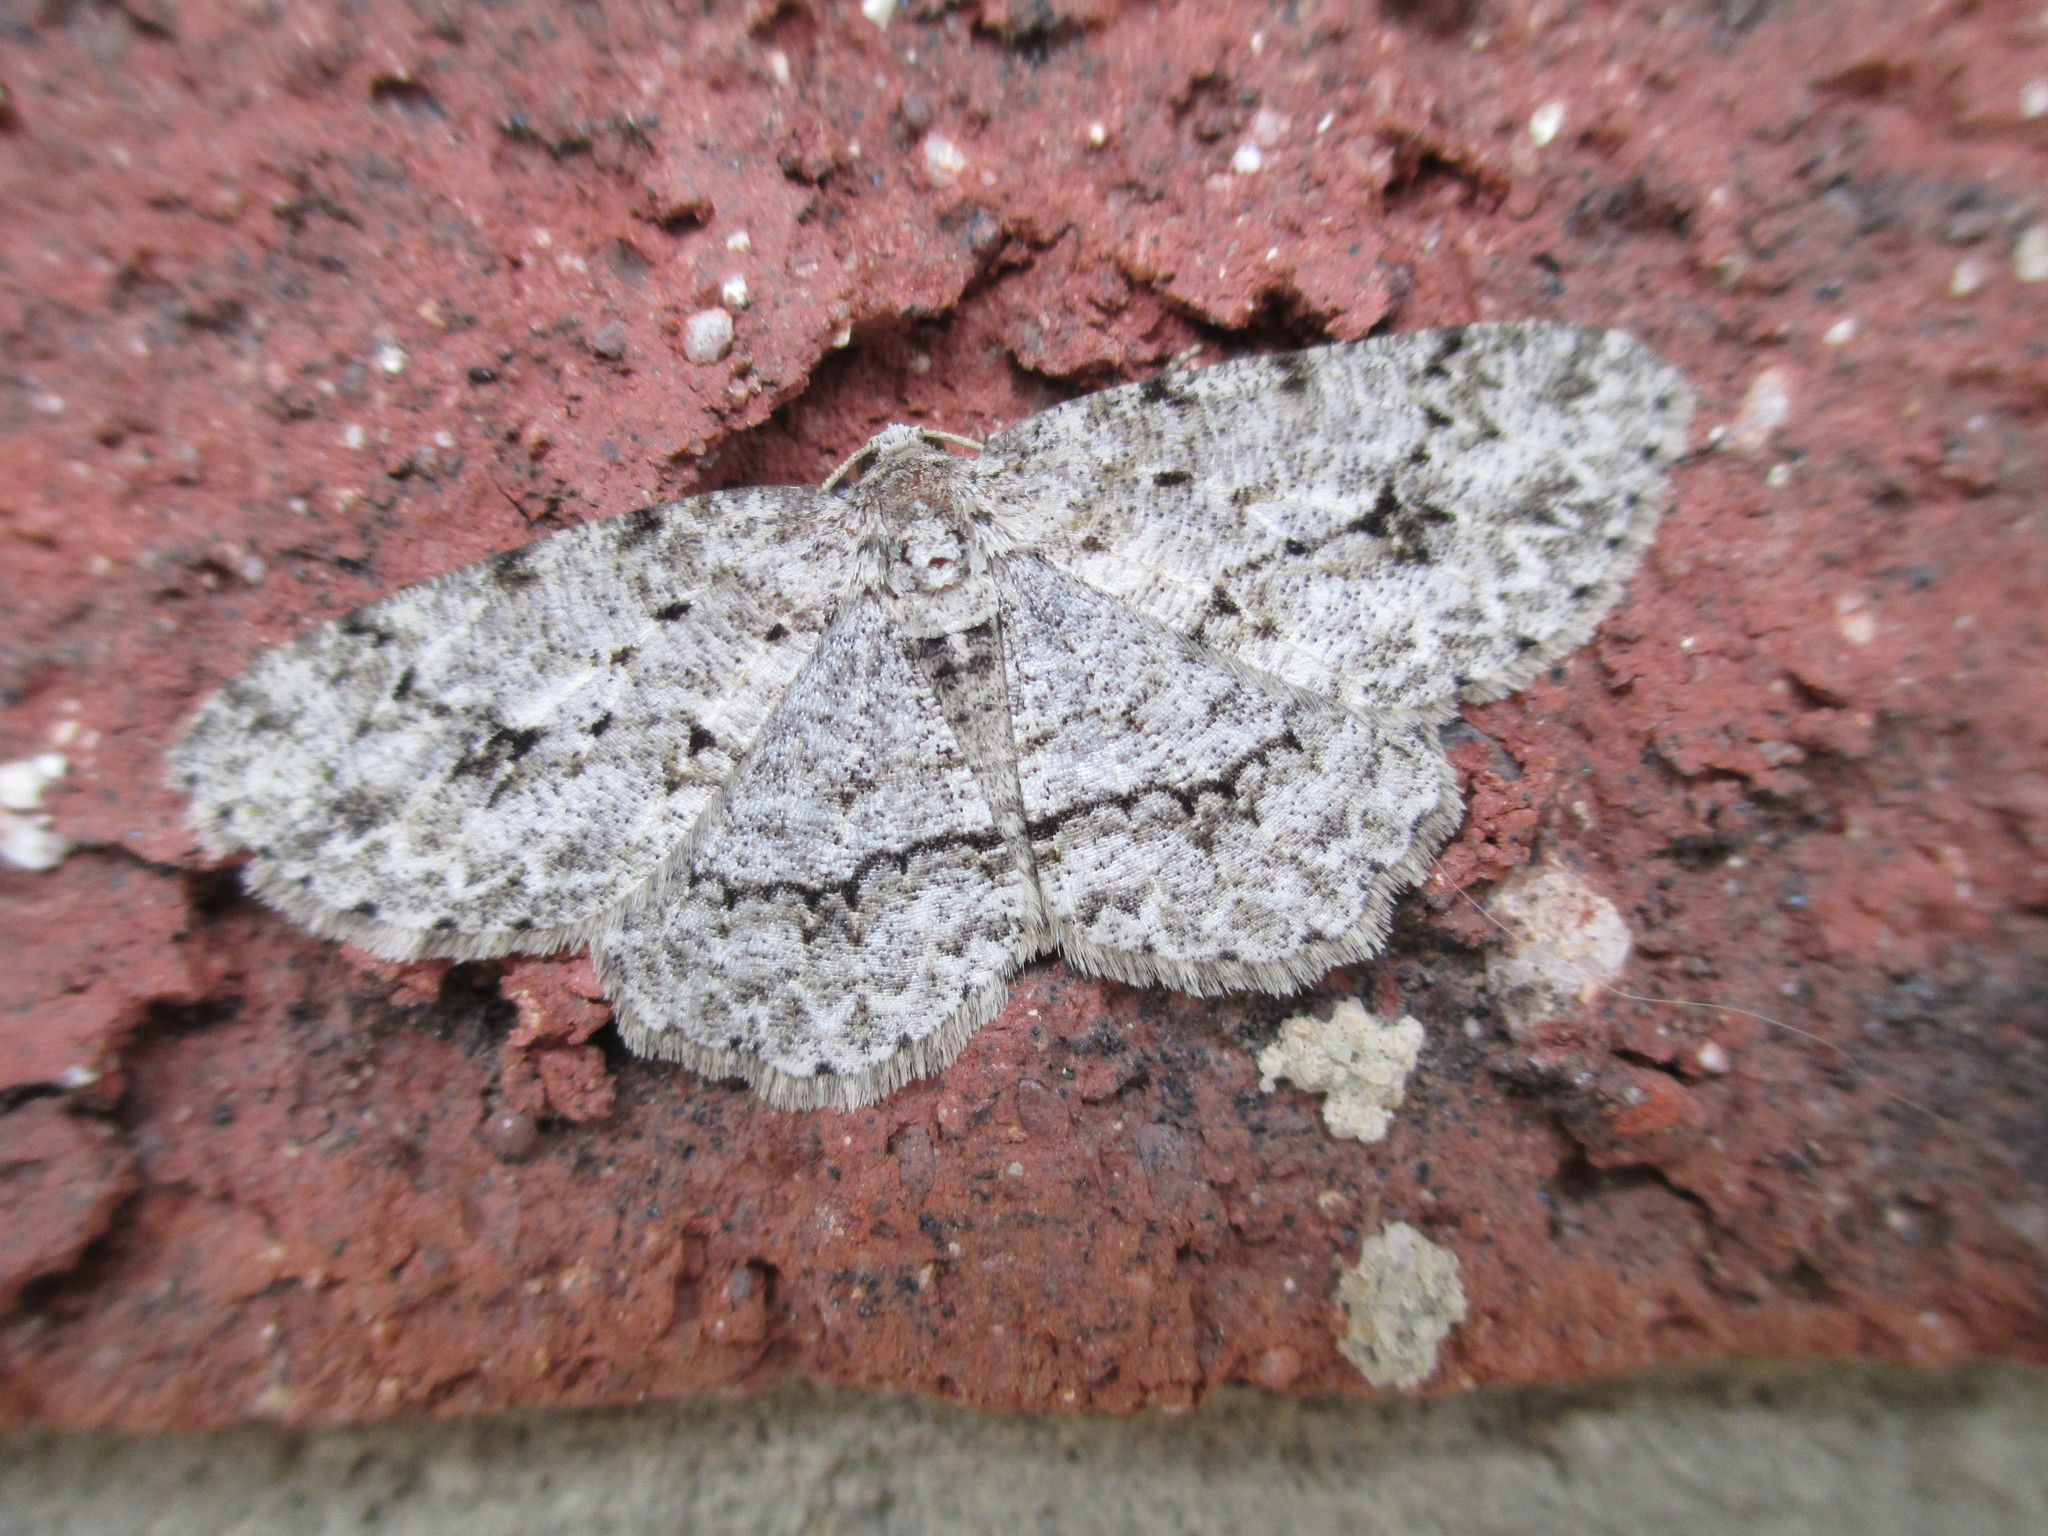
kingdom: Animalia
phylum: Arthropoda
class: Insecta
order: Lepidoptera
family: Geometridae
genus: Ectropis
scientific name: Ectropis crepuscularia
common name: Engrailed
